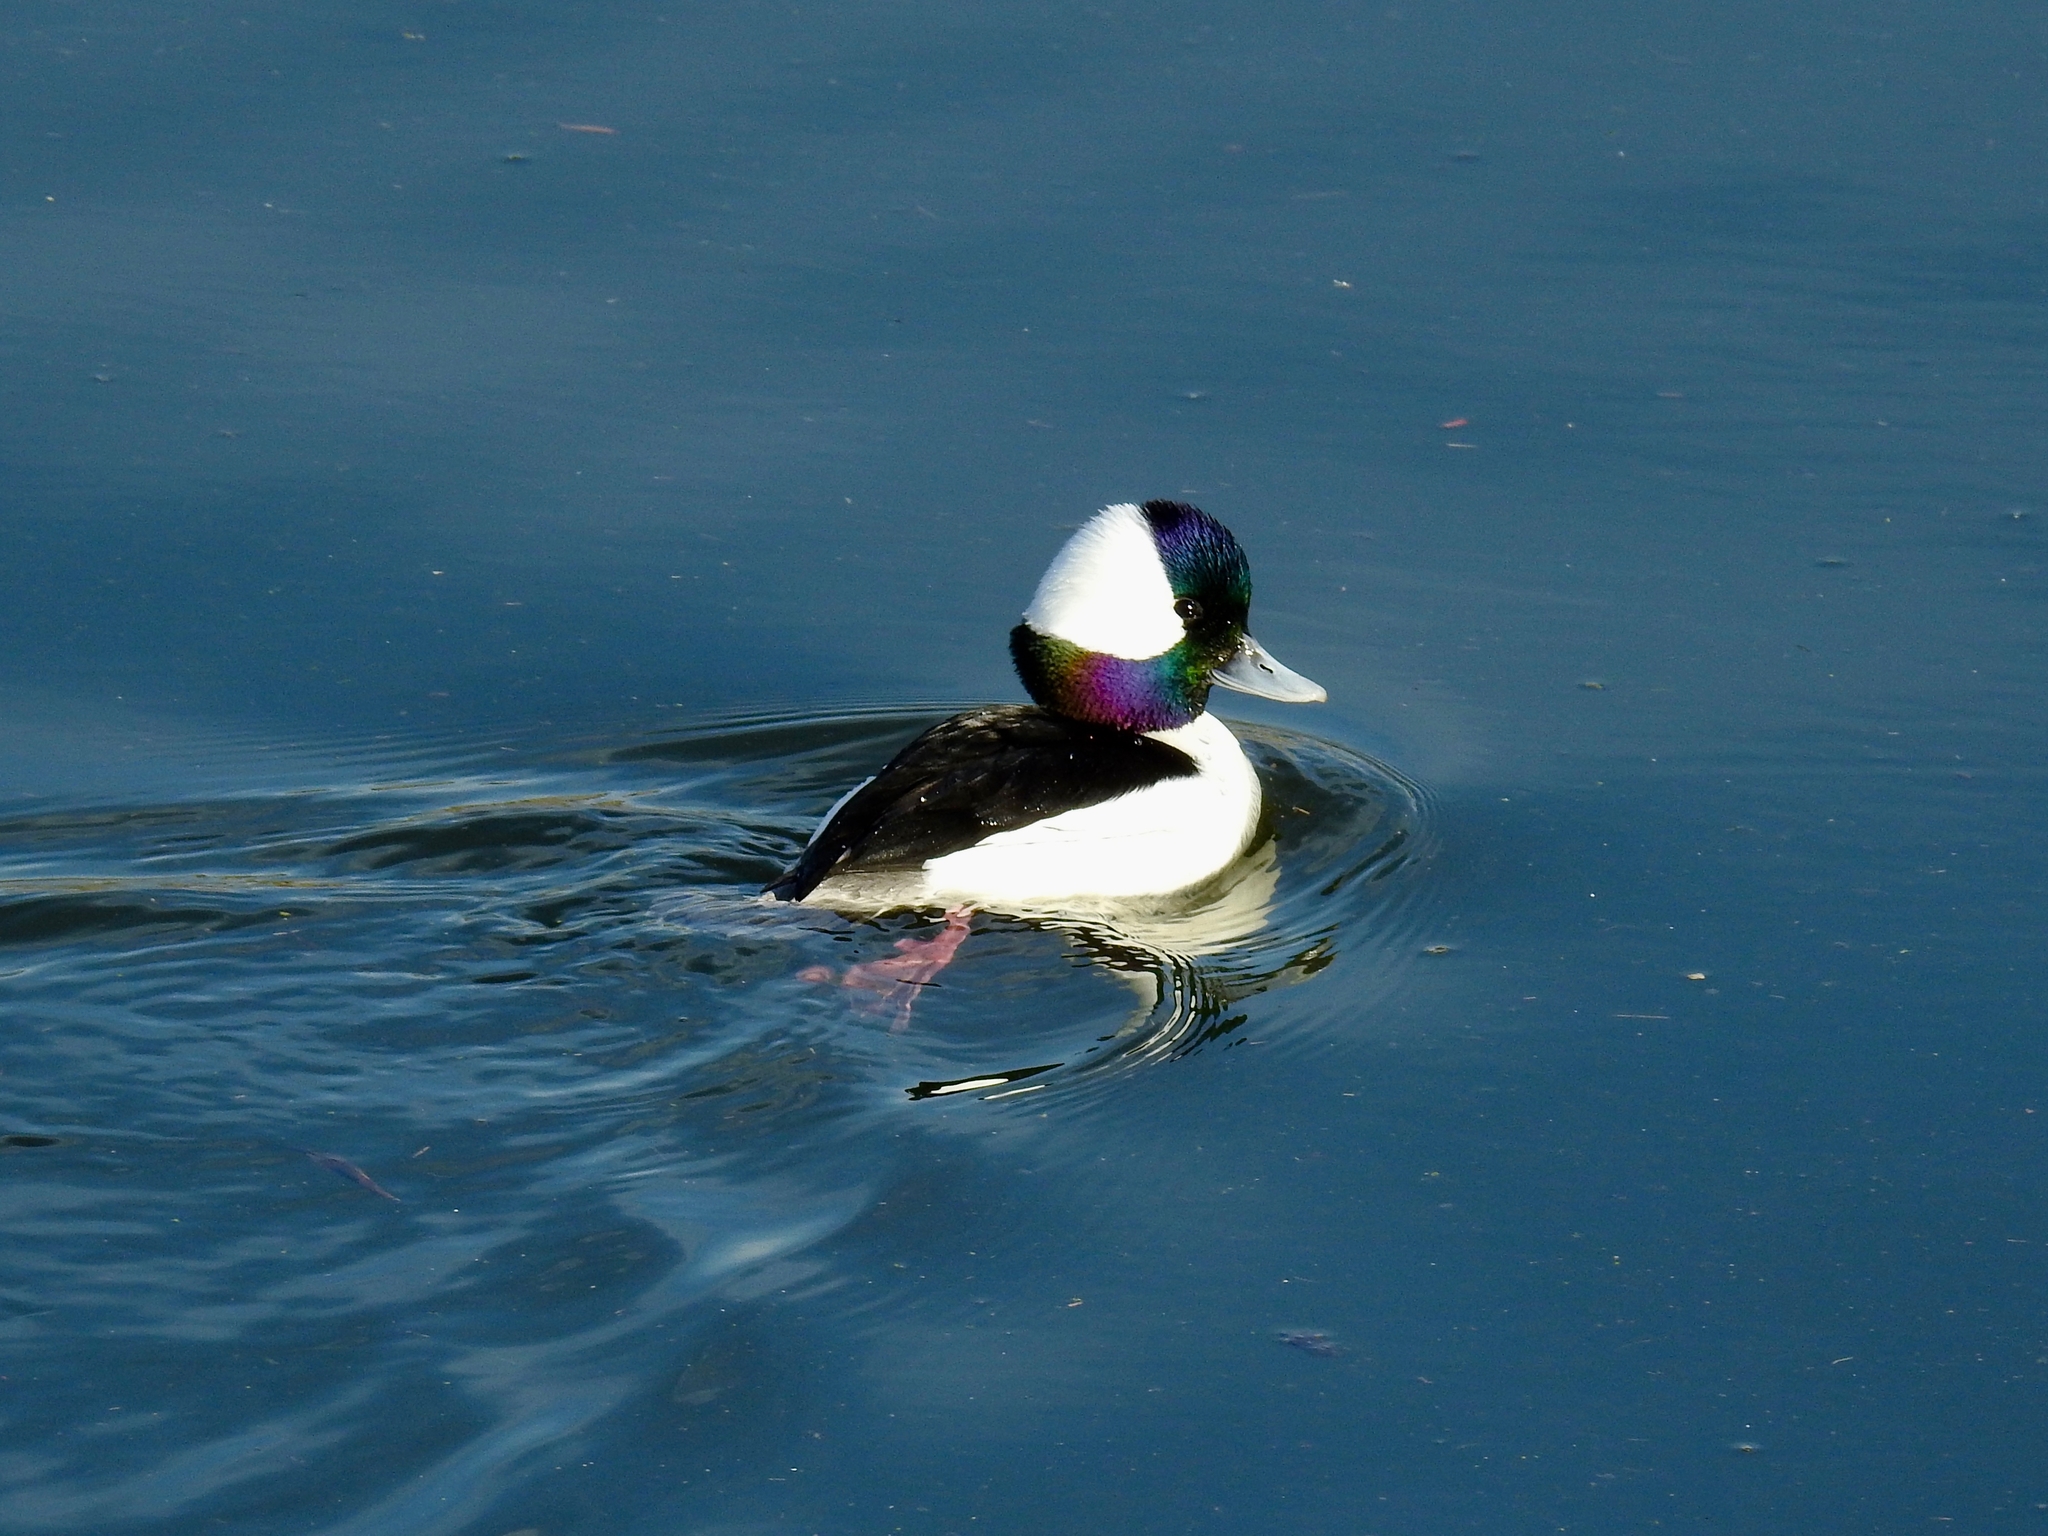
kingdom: Animalia
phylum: Chordata
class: Aves
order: Anseriformes
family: Anatidae
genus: Bucephala
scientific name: Bucephala albeola
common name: Bufflehead
